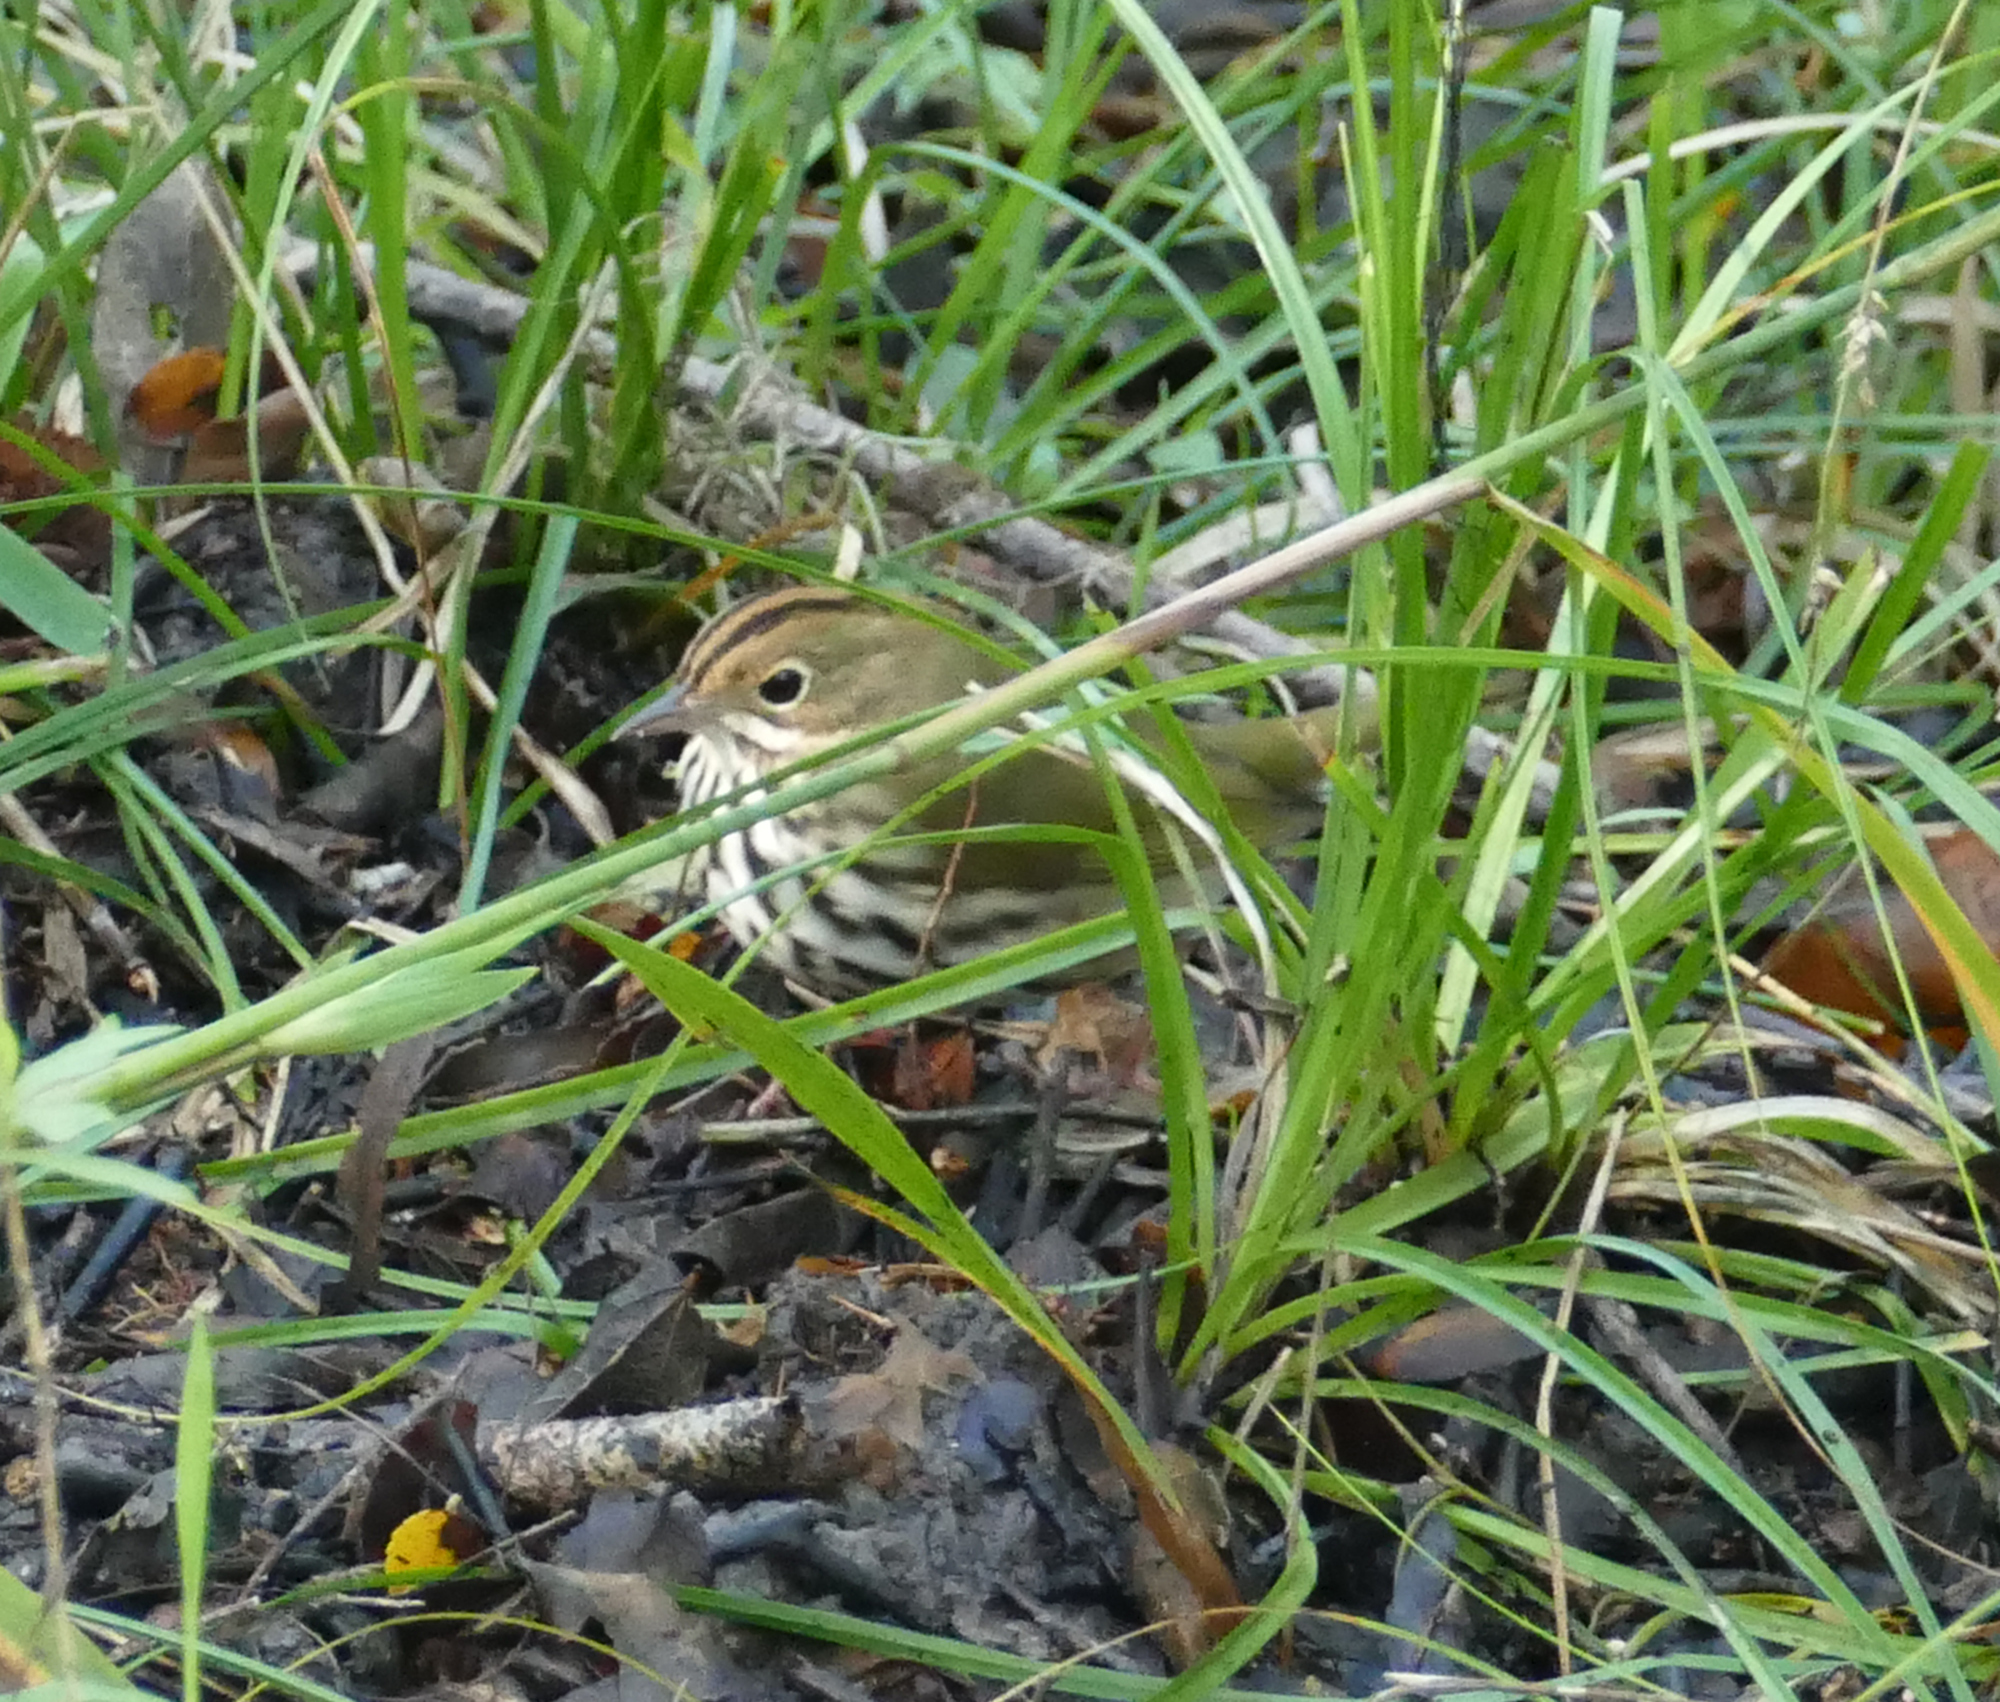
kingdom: Animalia
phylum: Chordata
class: Aves
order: Passeriformes
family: Parulidae
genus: Seiurus
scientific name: Seiurus aurocapilla
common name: Ovenbird
